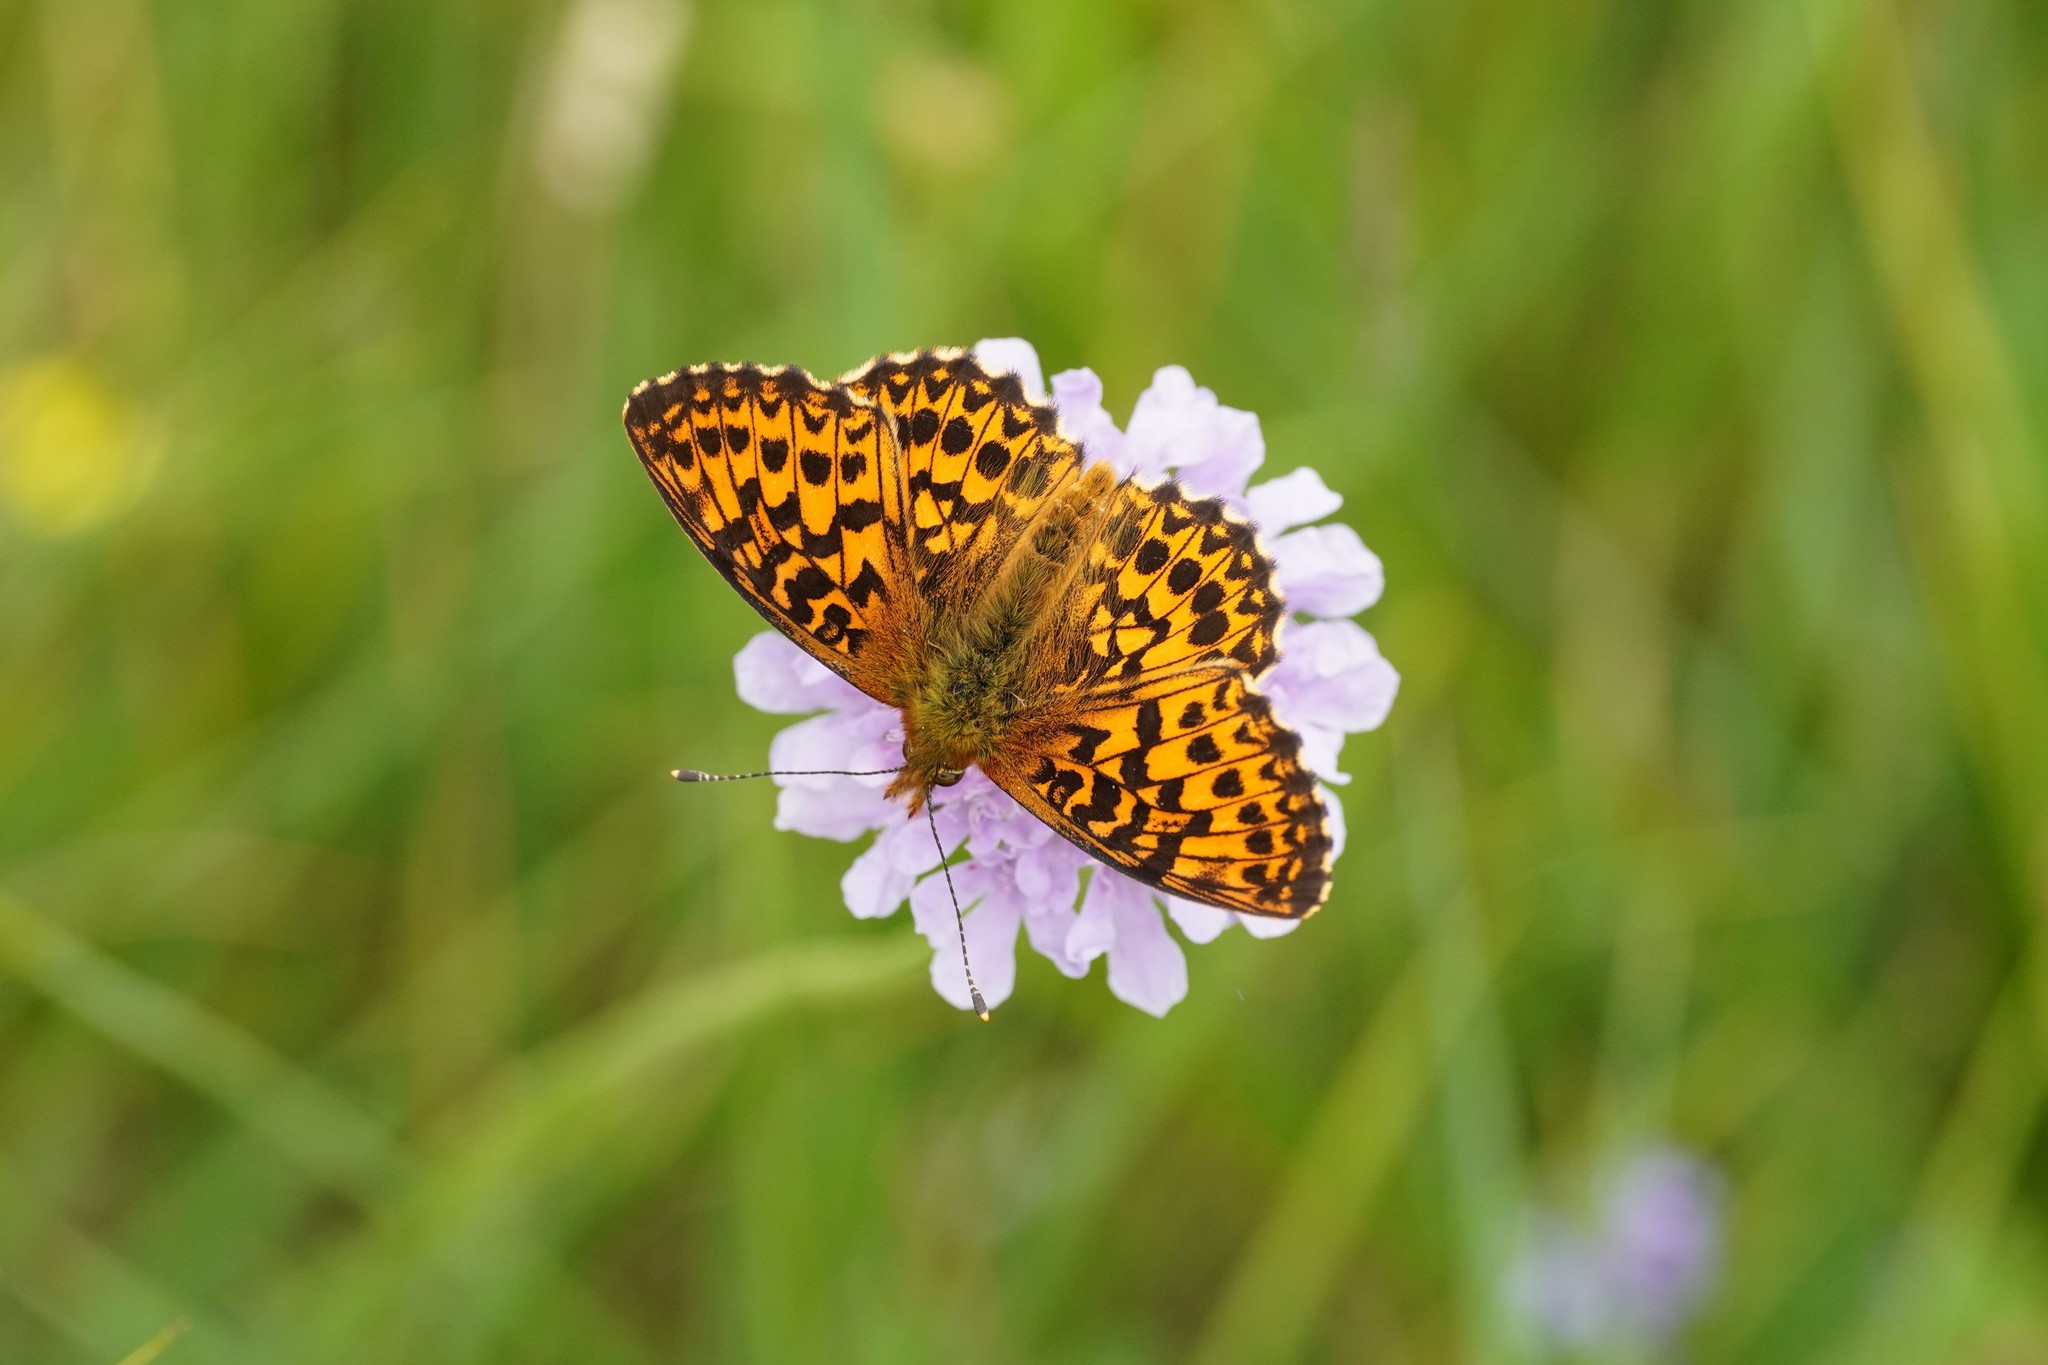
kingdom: Animalia
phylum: Arthropoda
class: Insecta
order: Lepidoptera
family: Nymphalidae
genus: Boloria
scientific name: Boloria titania
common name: Titania's fritillary
